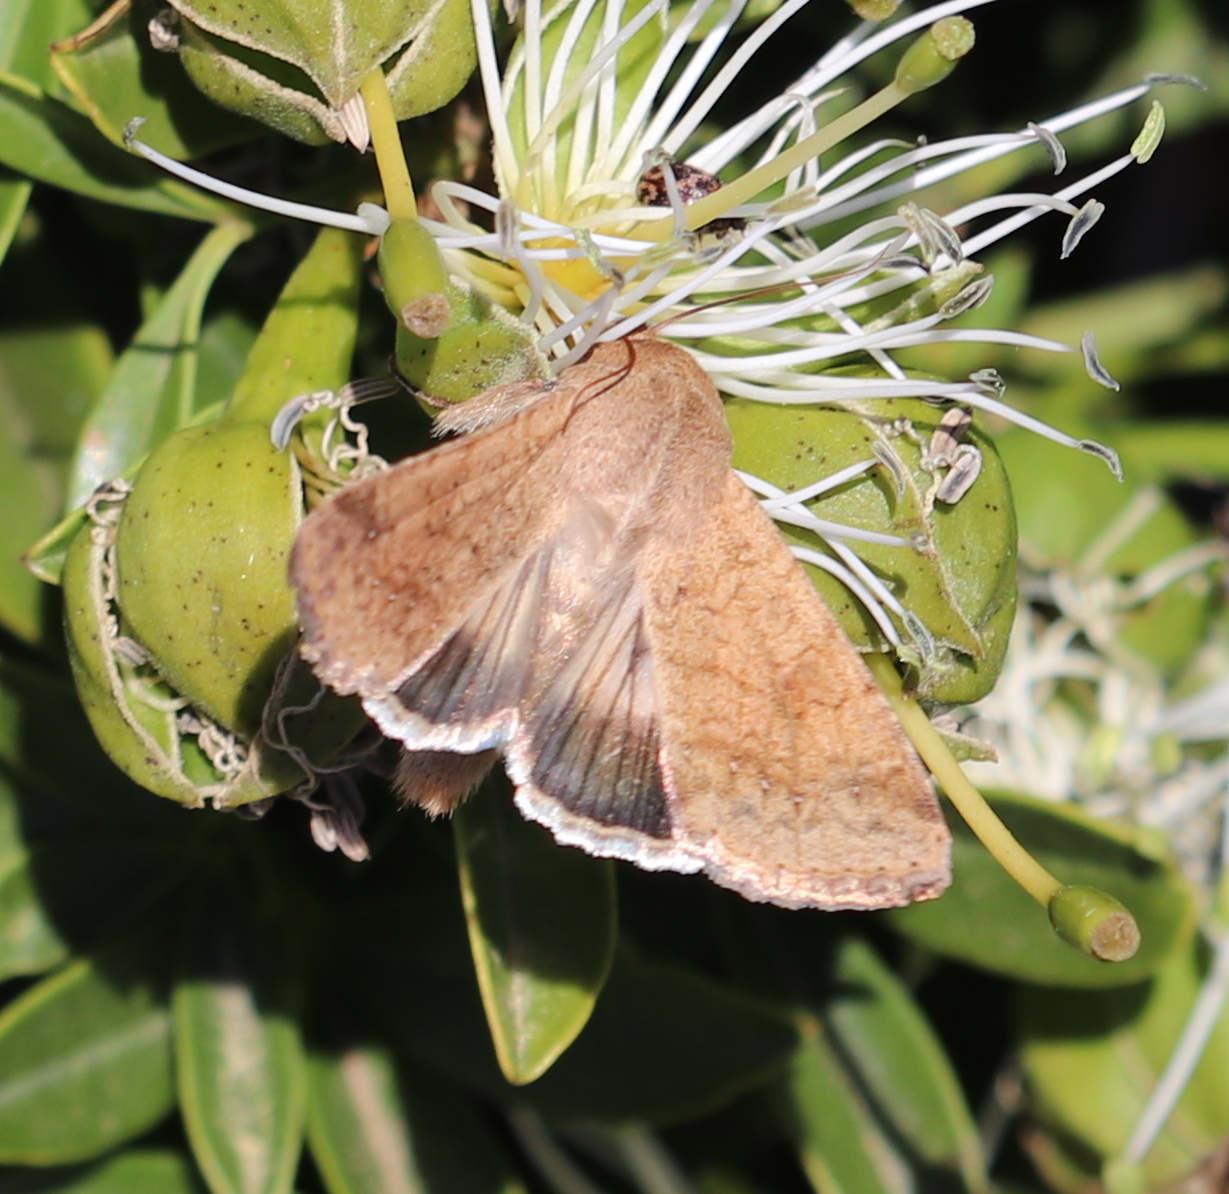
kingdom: Animalia
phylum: Arthropoda
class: Insecta
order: Lepidoptera
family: Noctuidae
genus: Helicoverpa
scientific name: Helicoverpa armigera
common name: Cotton bollworm
